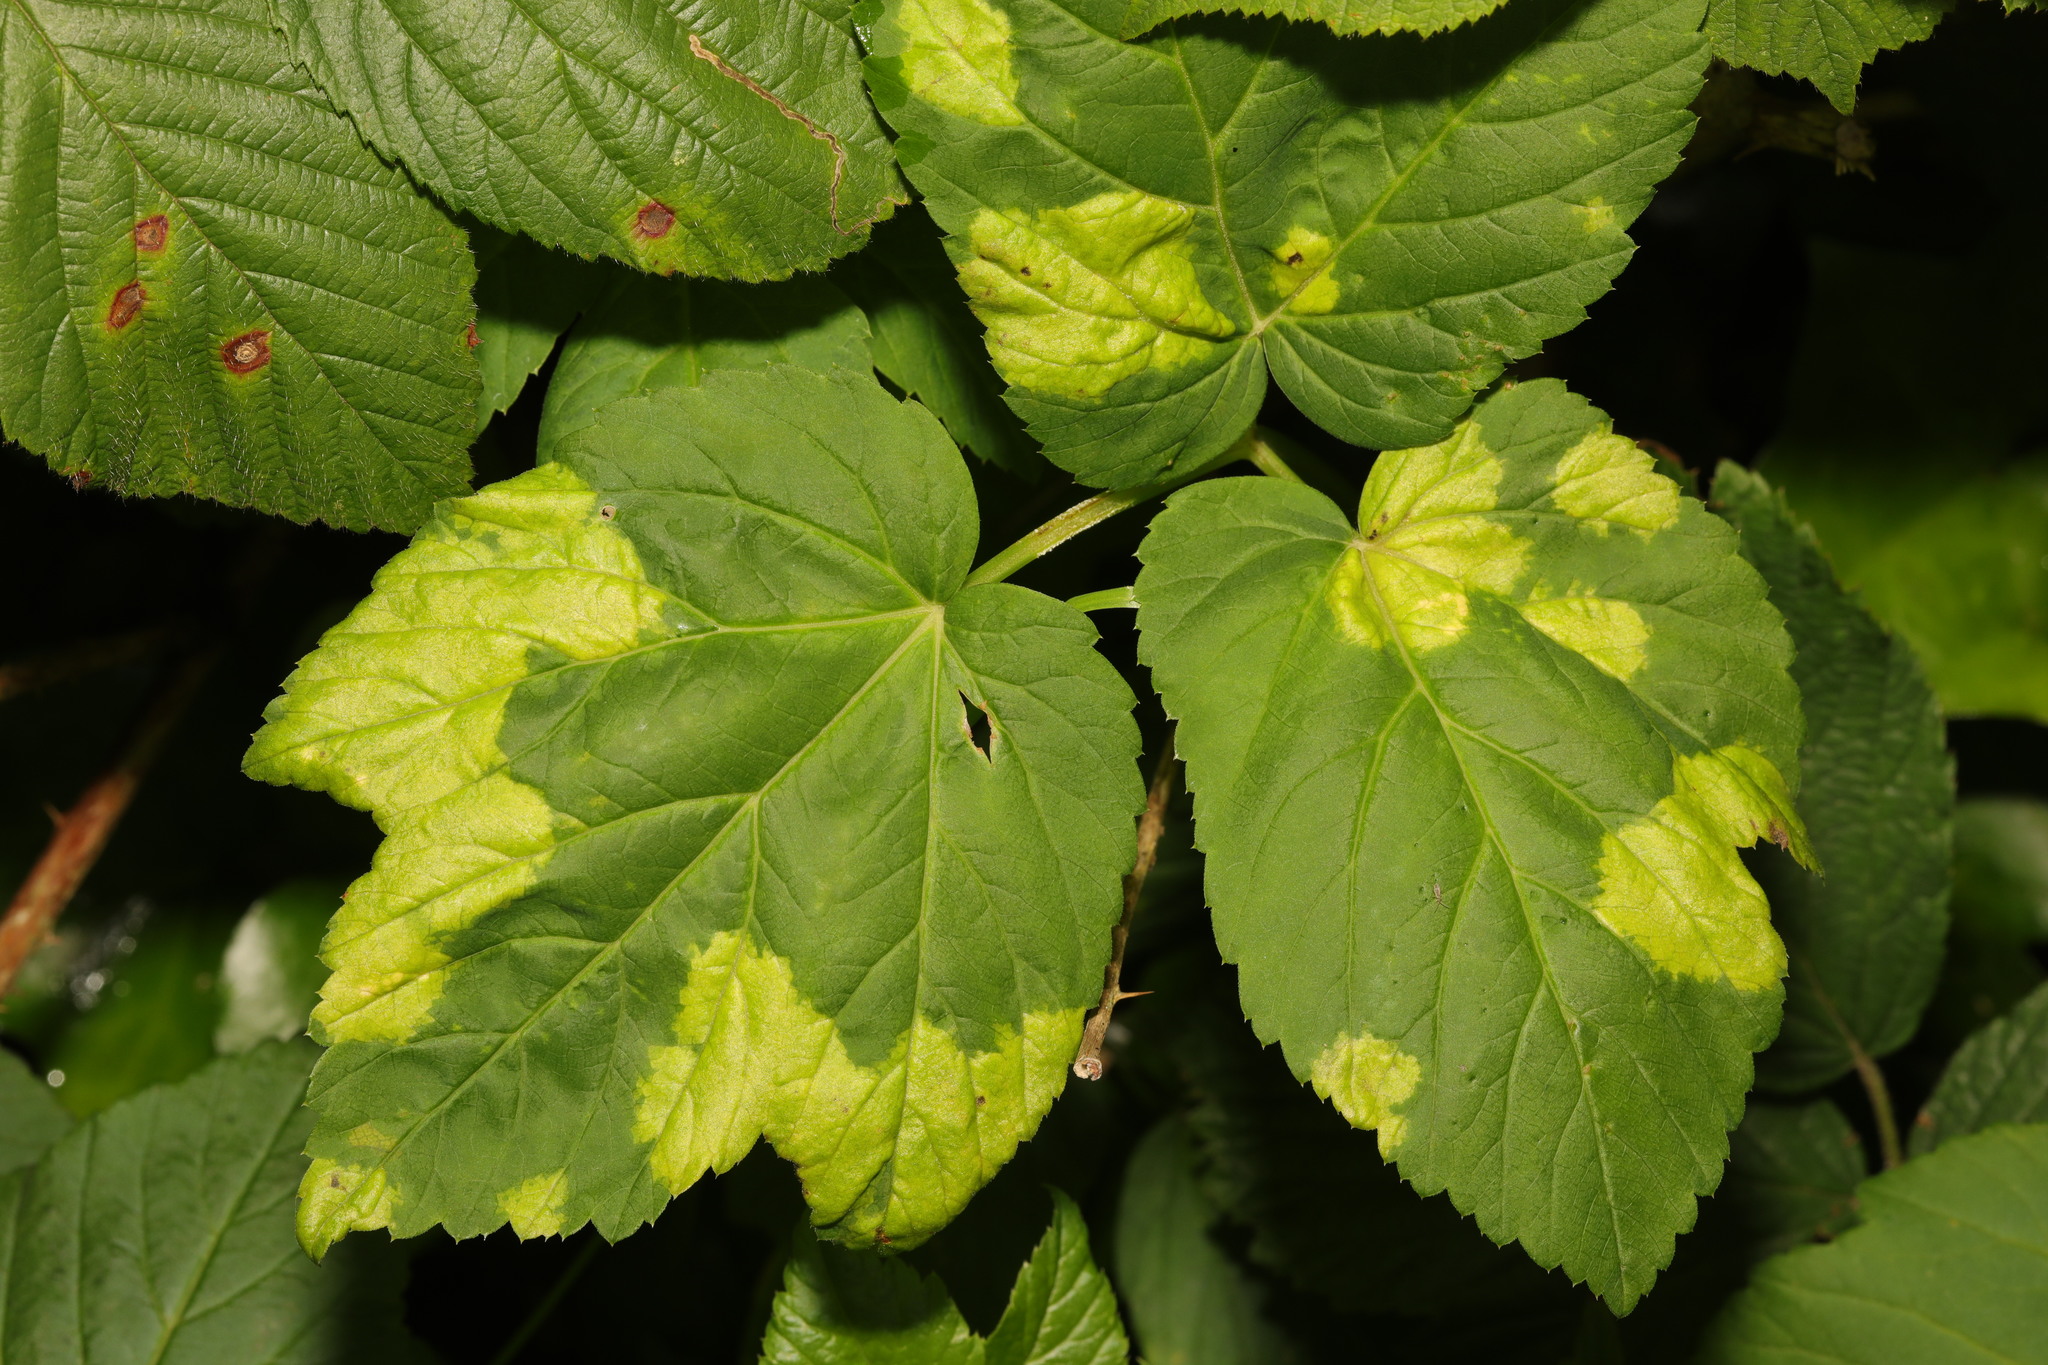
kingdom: Plantae
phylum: Tracheophyta
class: Magnoliopsida
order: Apiales
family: Apiaceae
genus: Aegopodium
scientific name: Aegopodium podagraria
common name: Ground-elder
